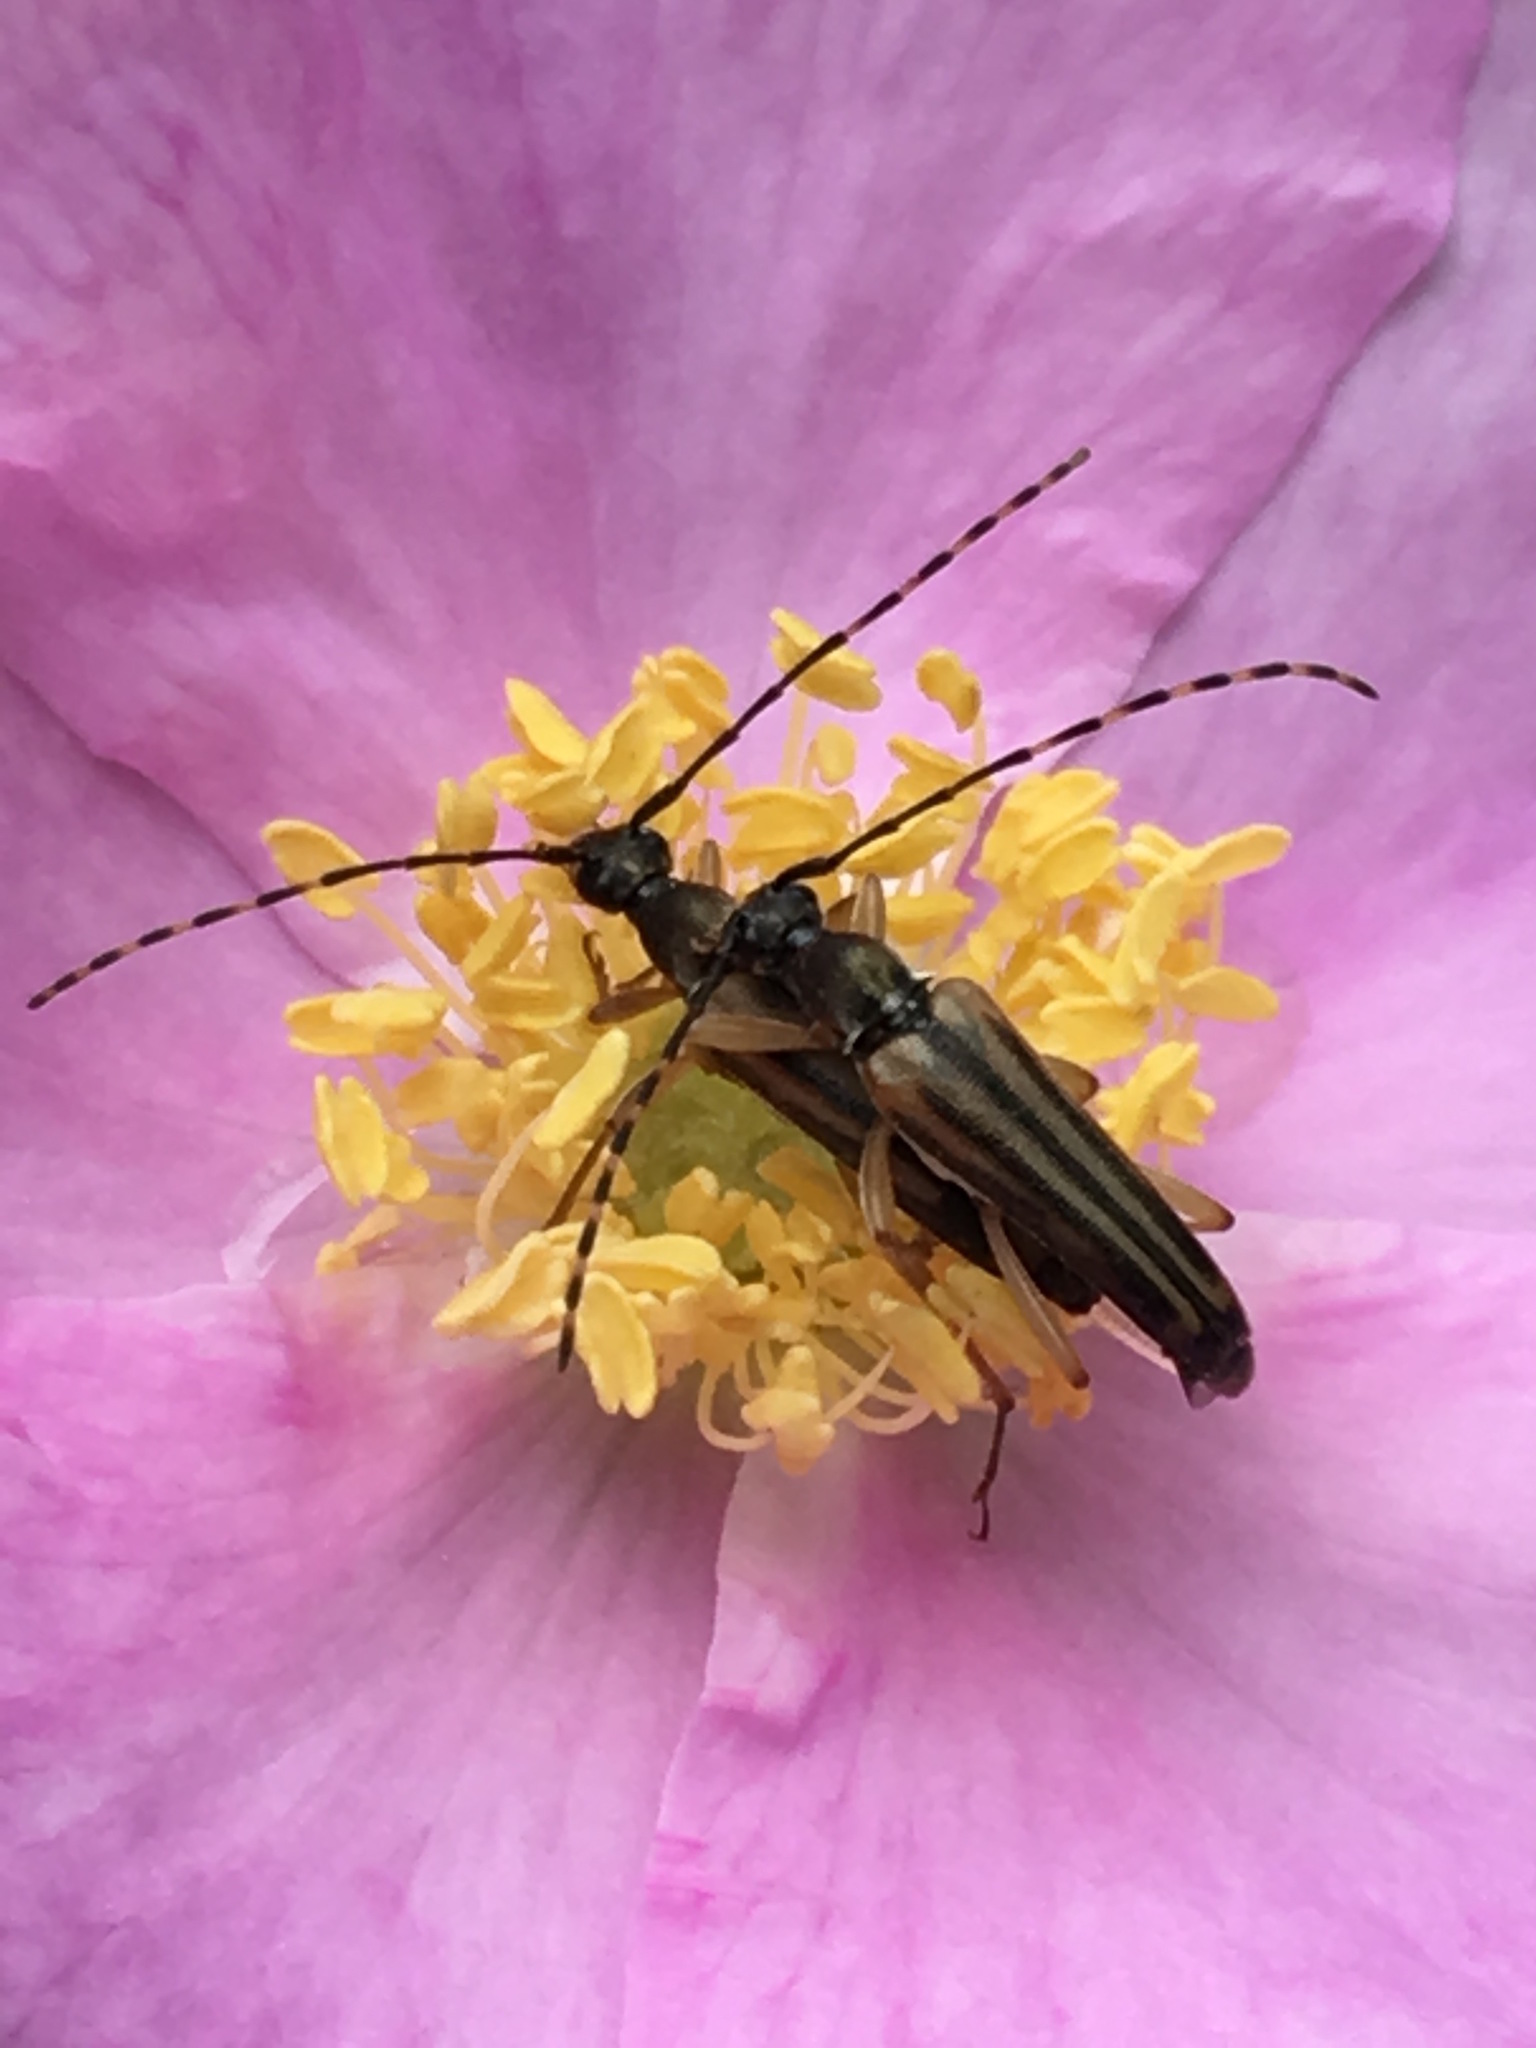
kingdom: Animalia
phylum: Arthropoda
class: Insecta
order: Coleoptera
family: Cerambycidae
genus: Analeptura
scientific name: Analeptura lineola
